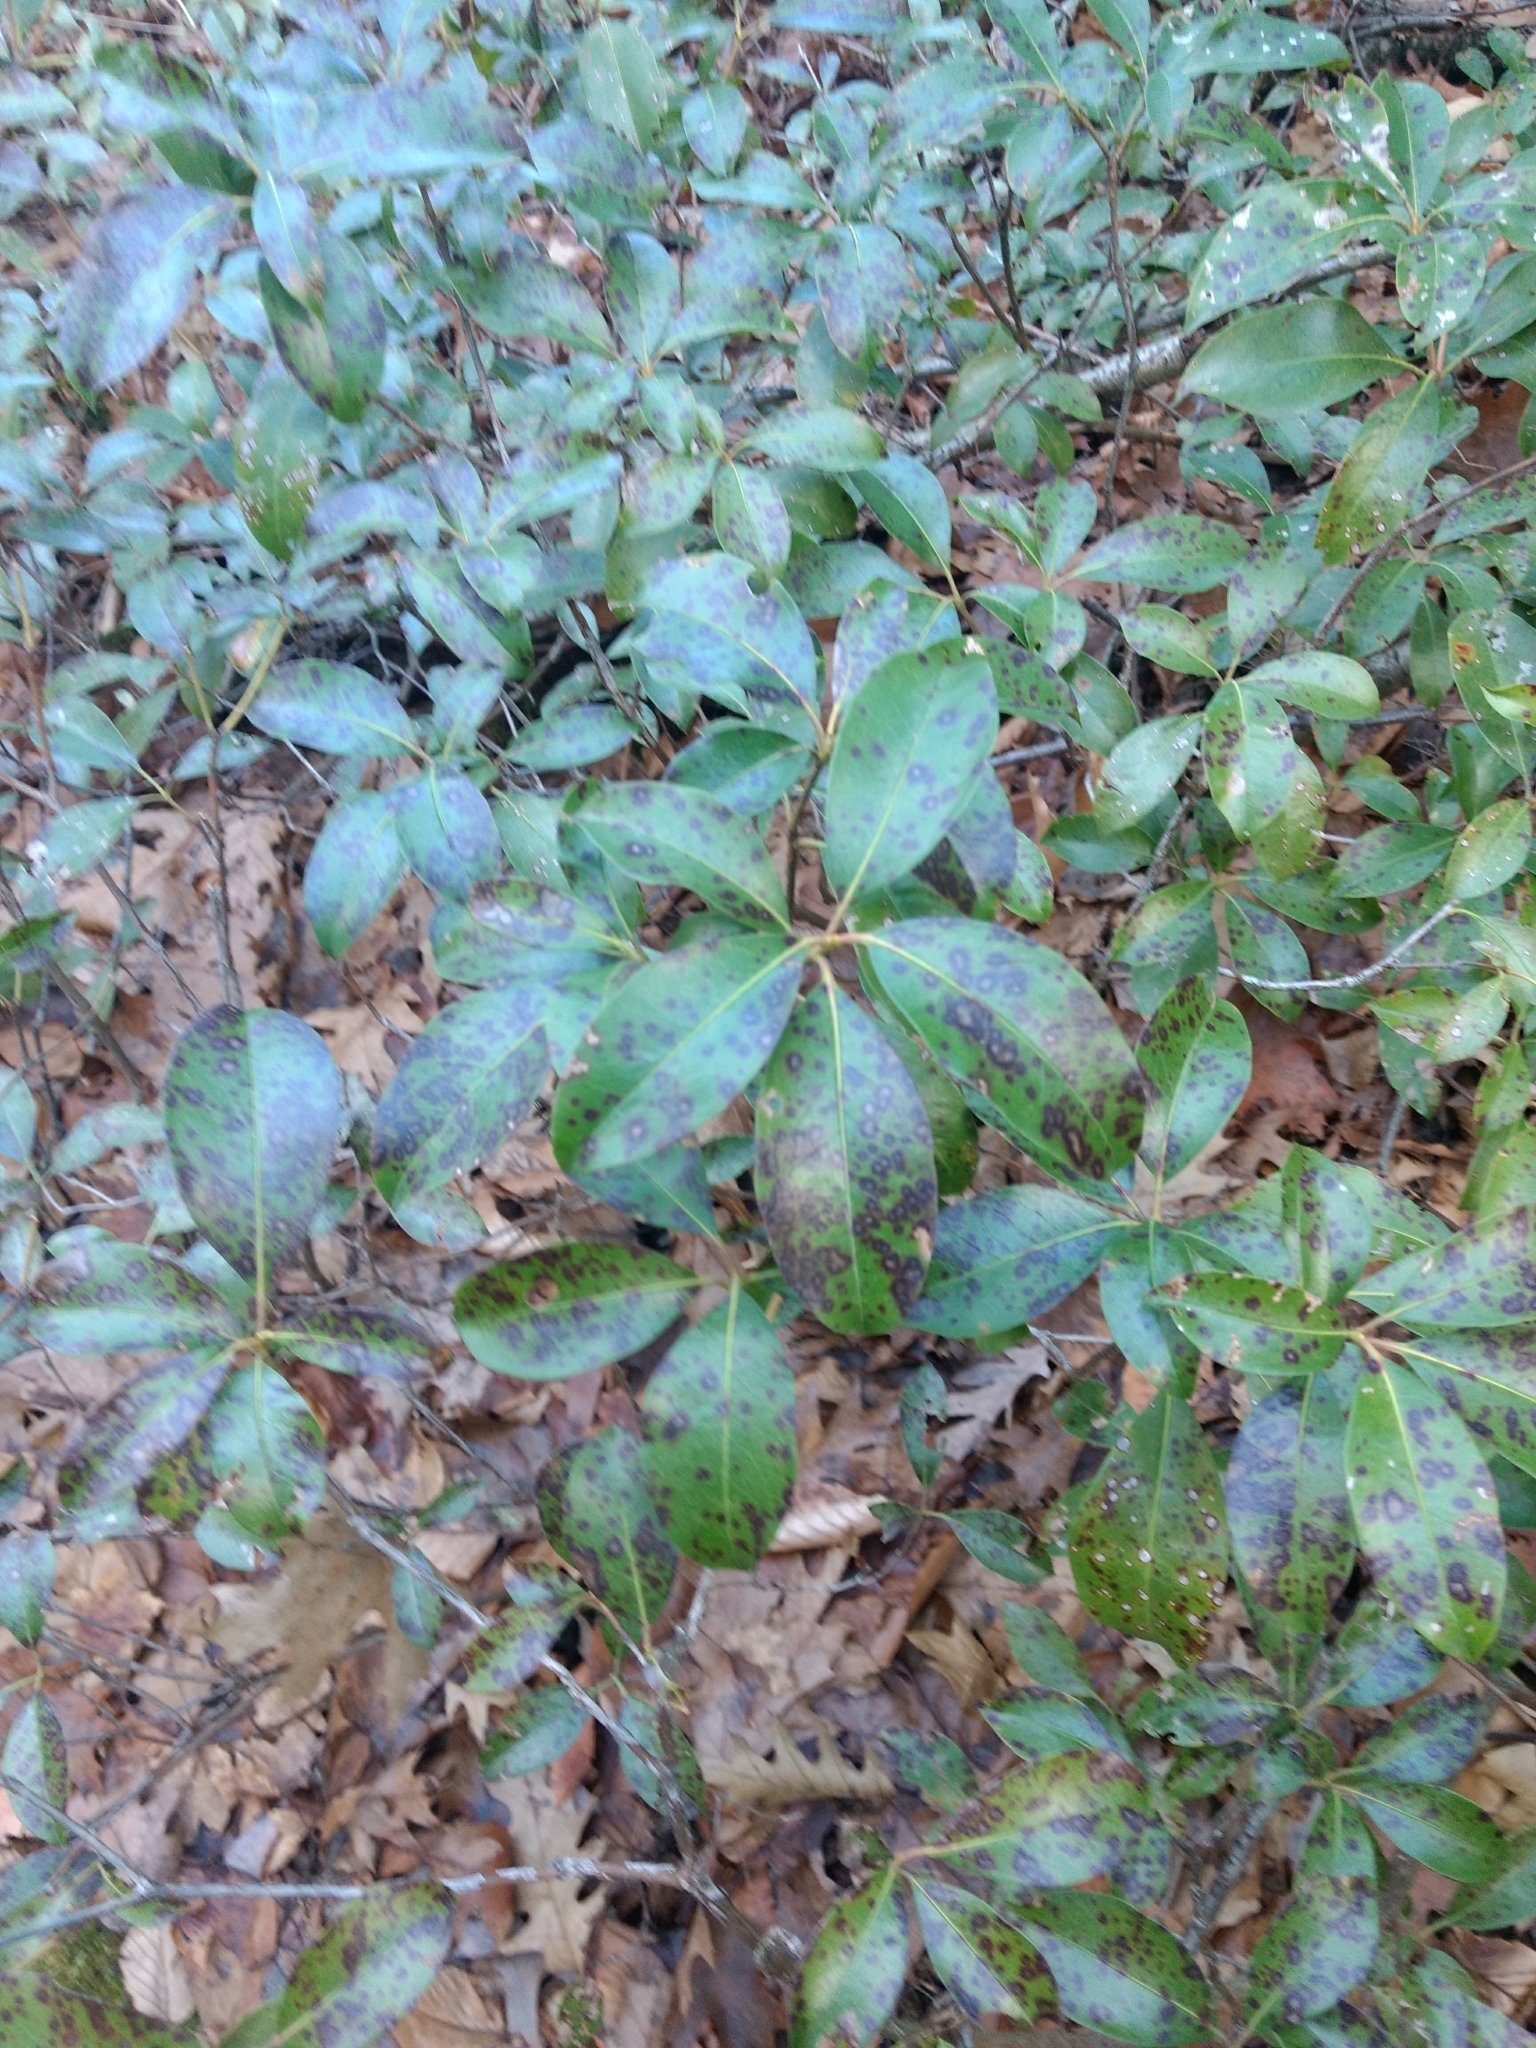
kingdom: Plantae
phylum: Tracheophyta
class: Magnoliopsida
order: Ericales
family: Ericaceae
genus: Kalmia
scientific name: Kalmia latifolia
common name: Mountain-laurel
